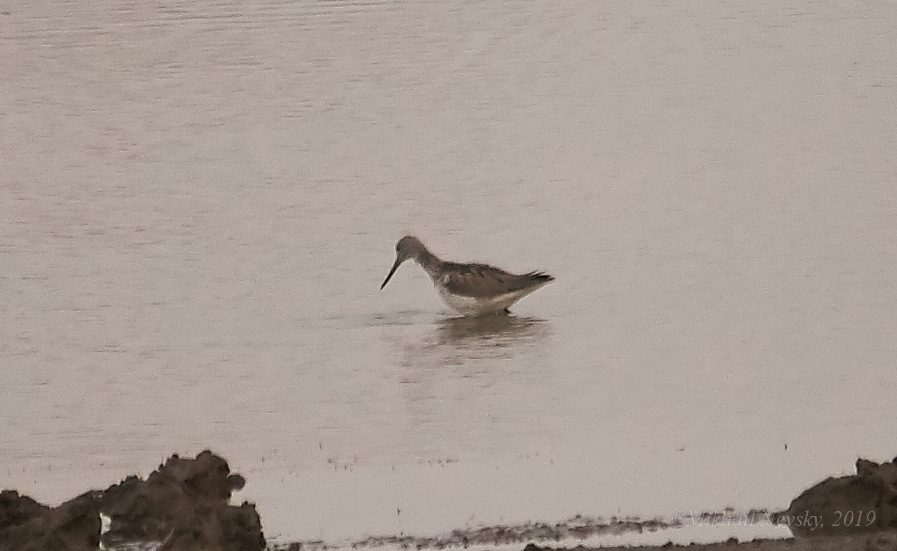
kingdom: Animalia
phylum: Chordata
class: Aves
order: Charadriiformes
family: Scolopacidae
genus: Tringa
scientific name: Tringa nebularia
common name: Common greenshank
